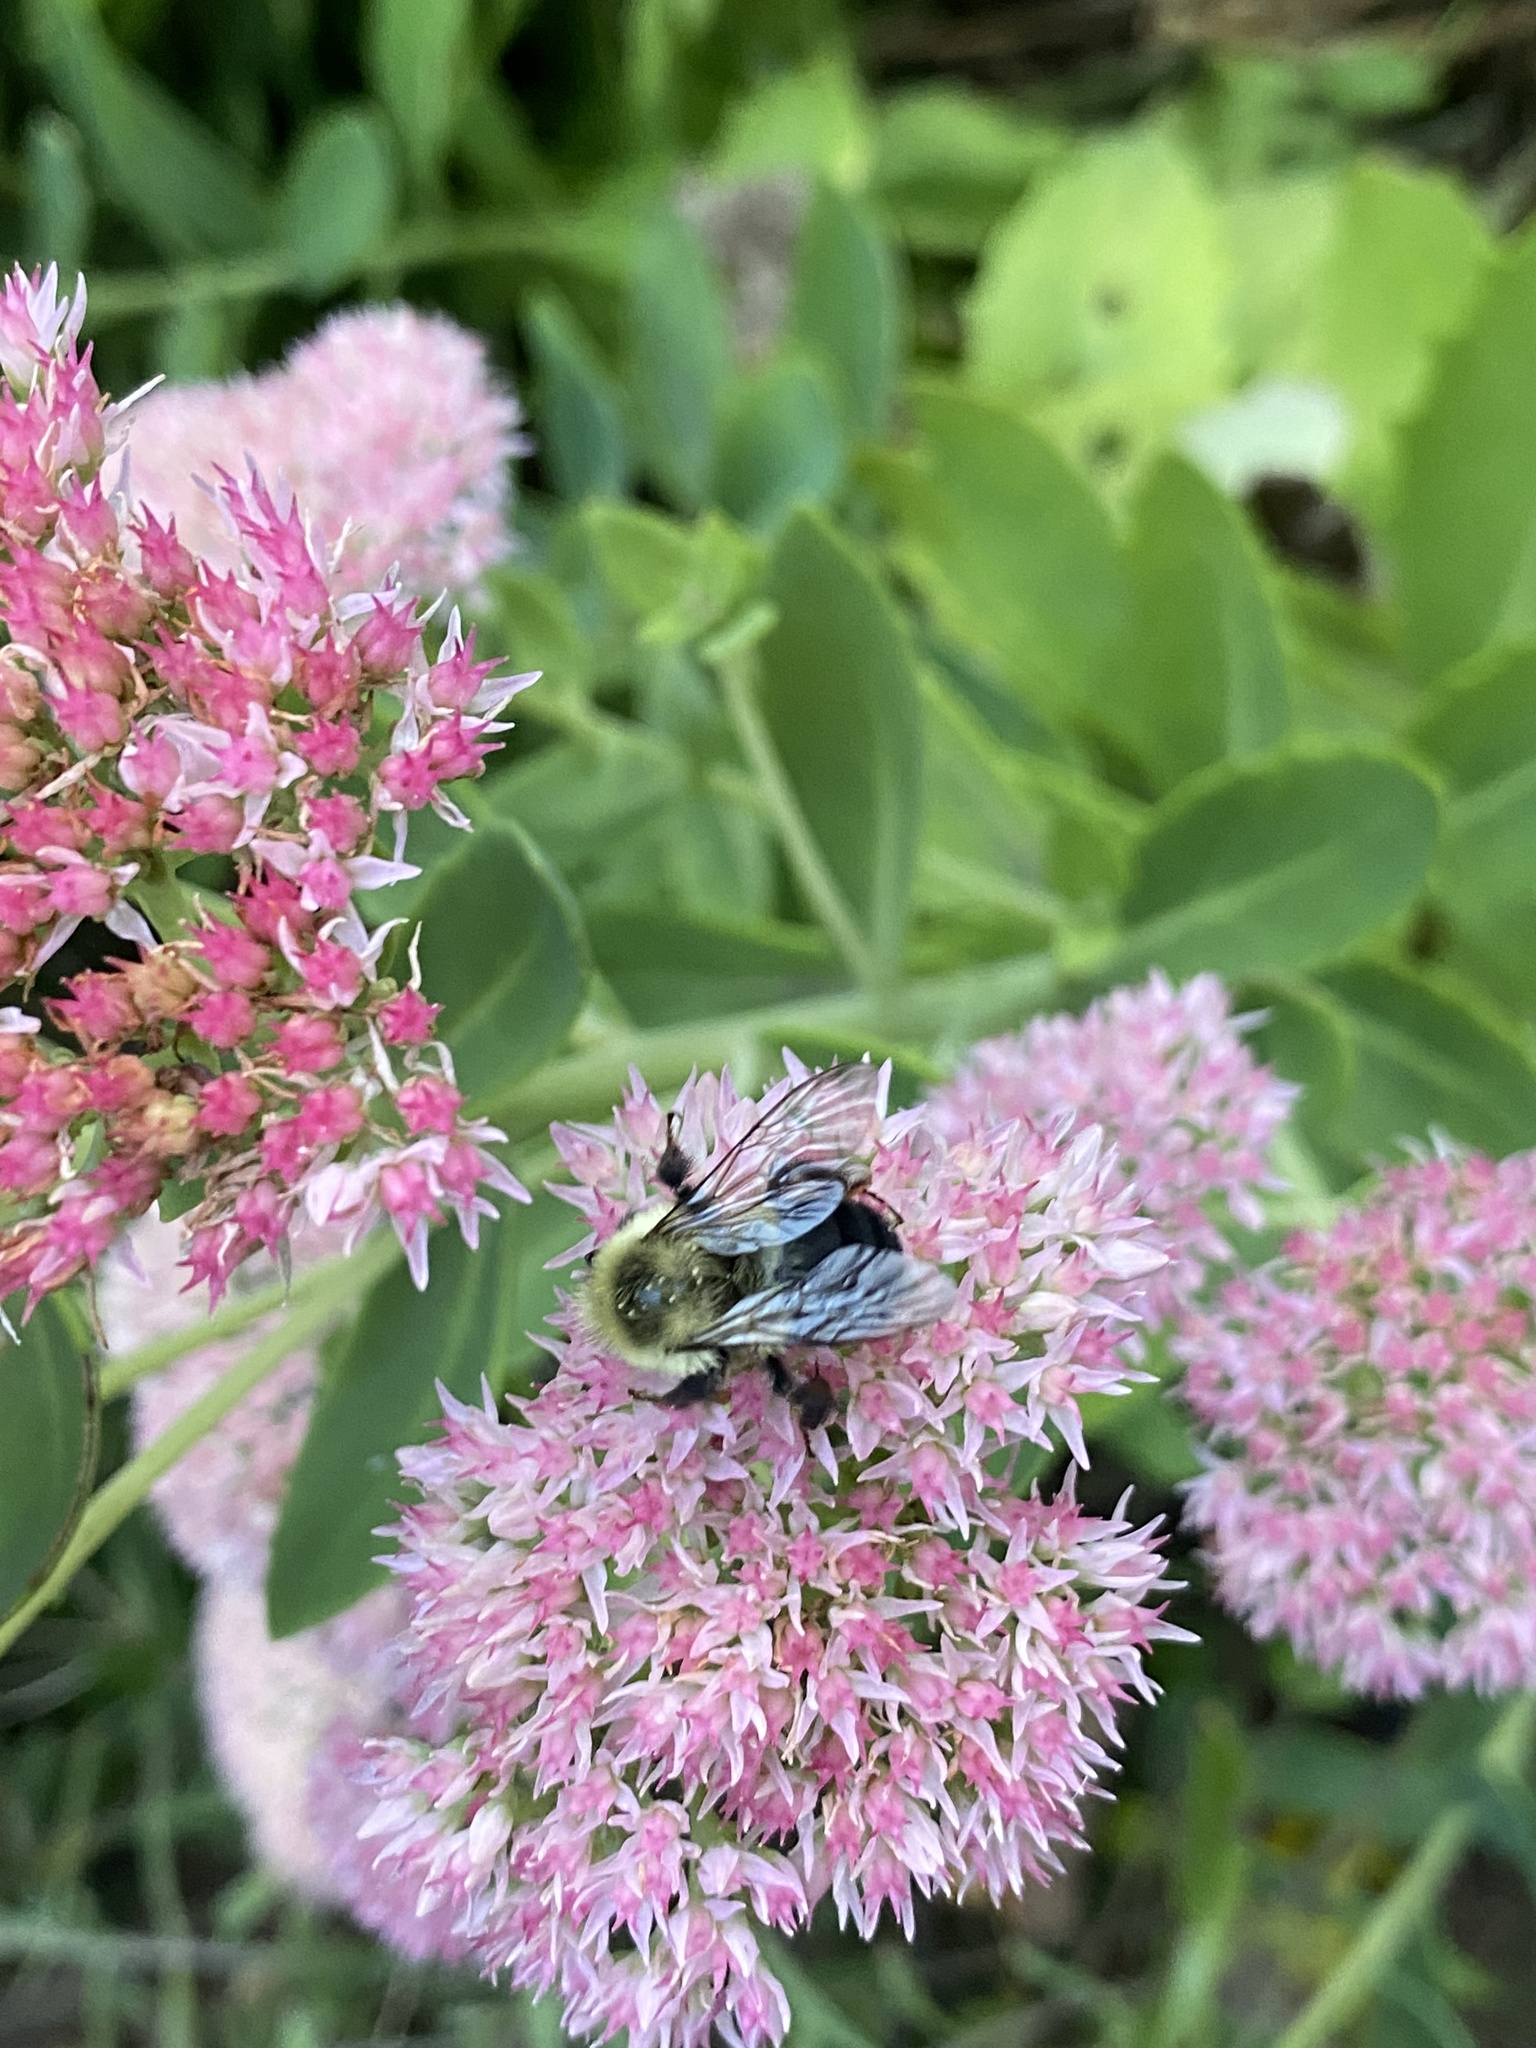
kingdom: Animalia
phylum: Arthropoda
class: Insecta
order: Hymenoptera
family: Apidae
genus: Bombus
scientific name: Bombus impatiens
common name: Common eastern bumble bee
